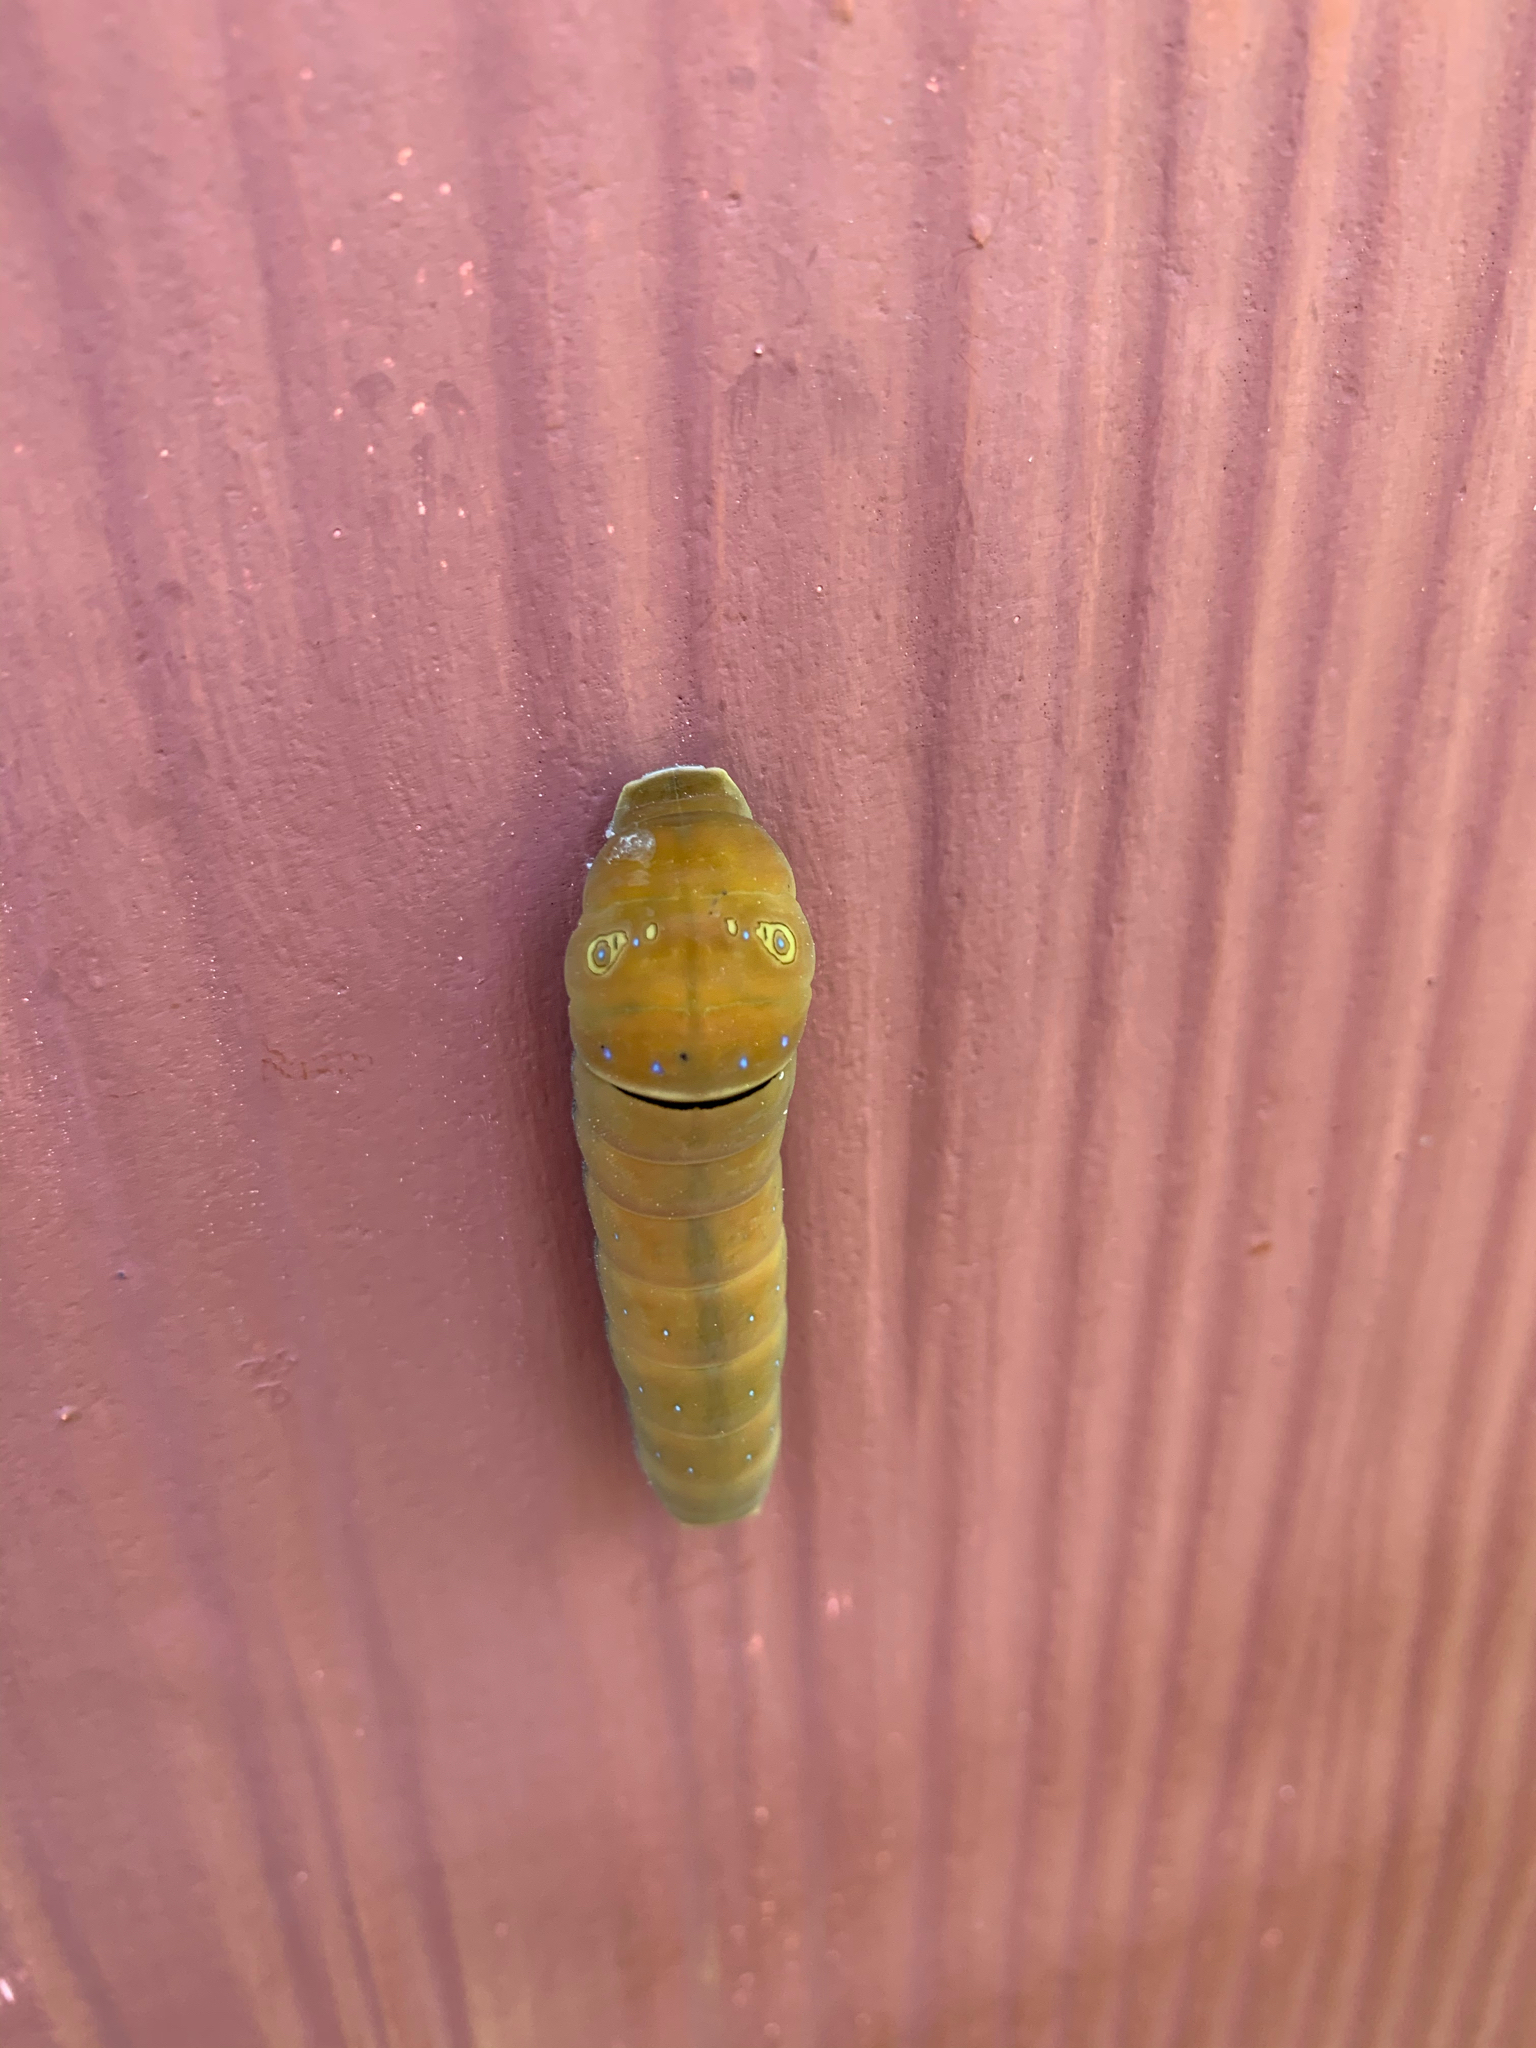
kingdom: Animalia
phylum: Arthropoda
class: Insecta
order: Lepidoptera
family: Papilionidae
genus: Papilio
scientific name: Papilio multicaudata
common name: Two-tailed tiger swallowtail
